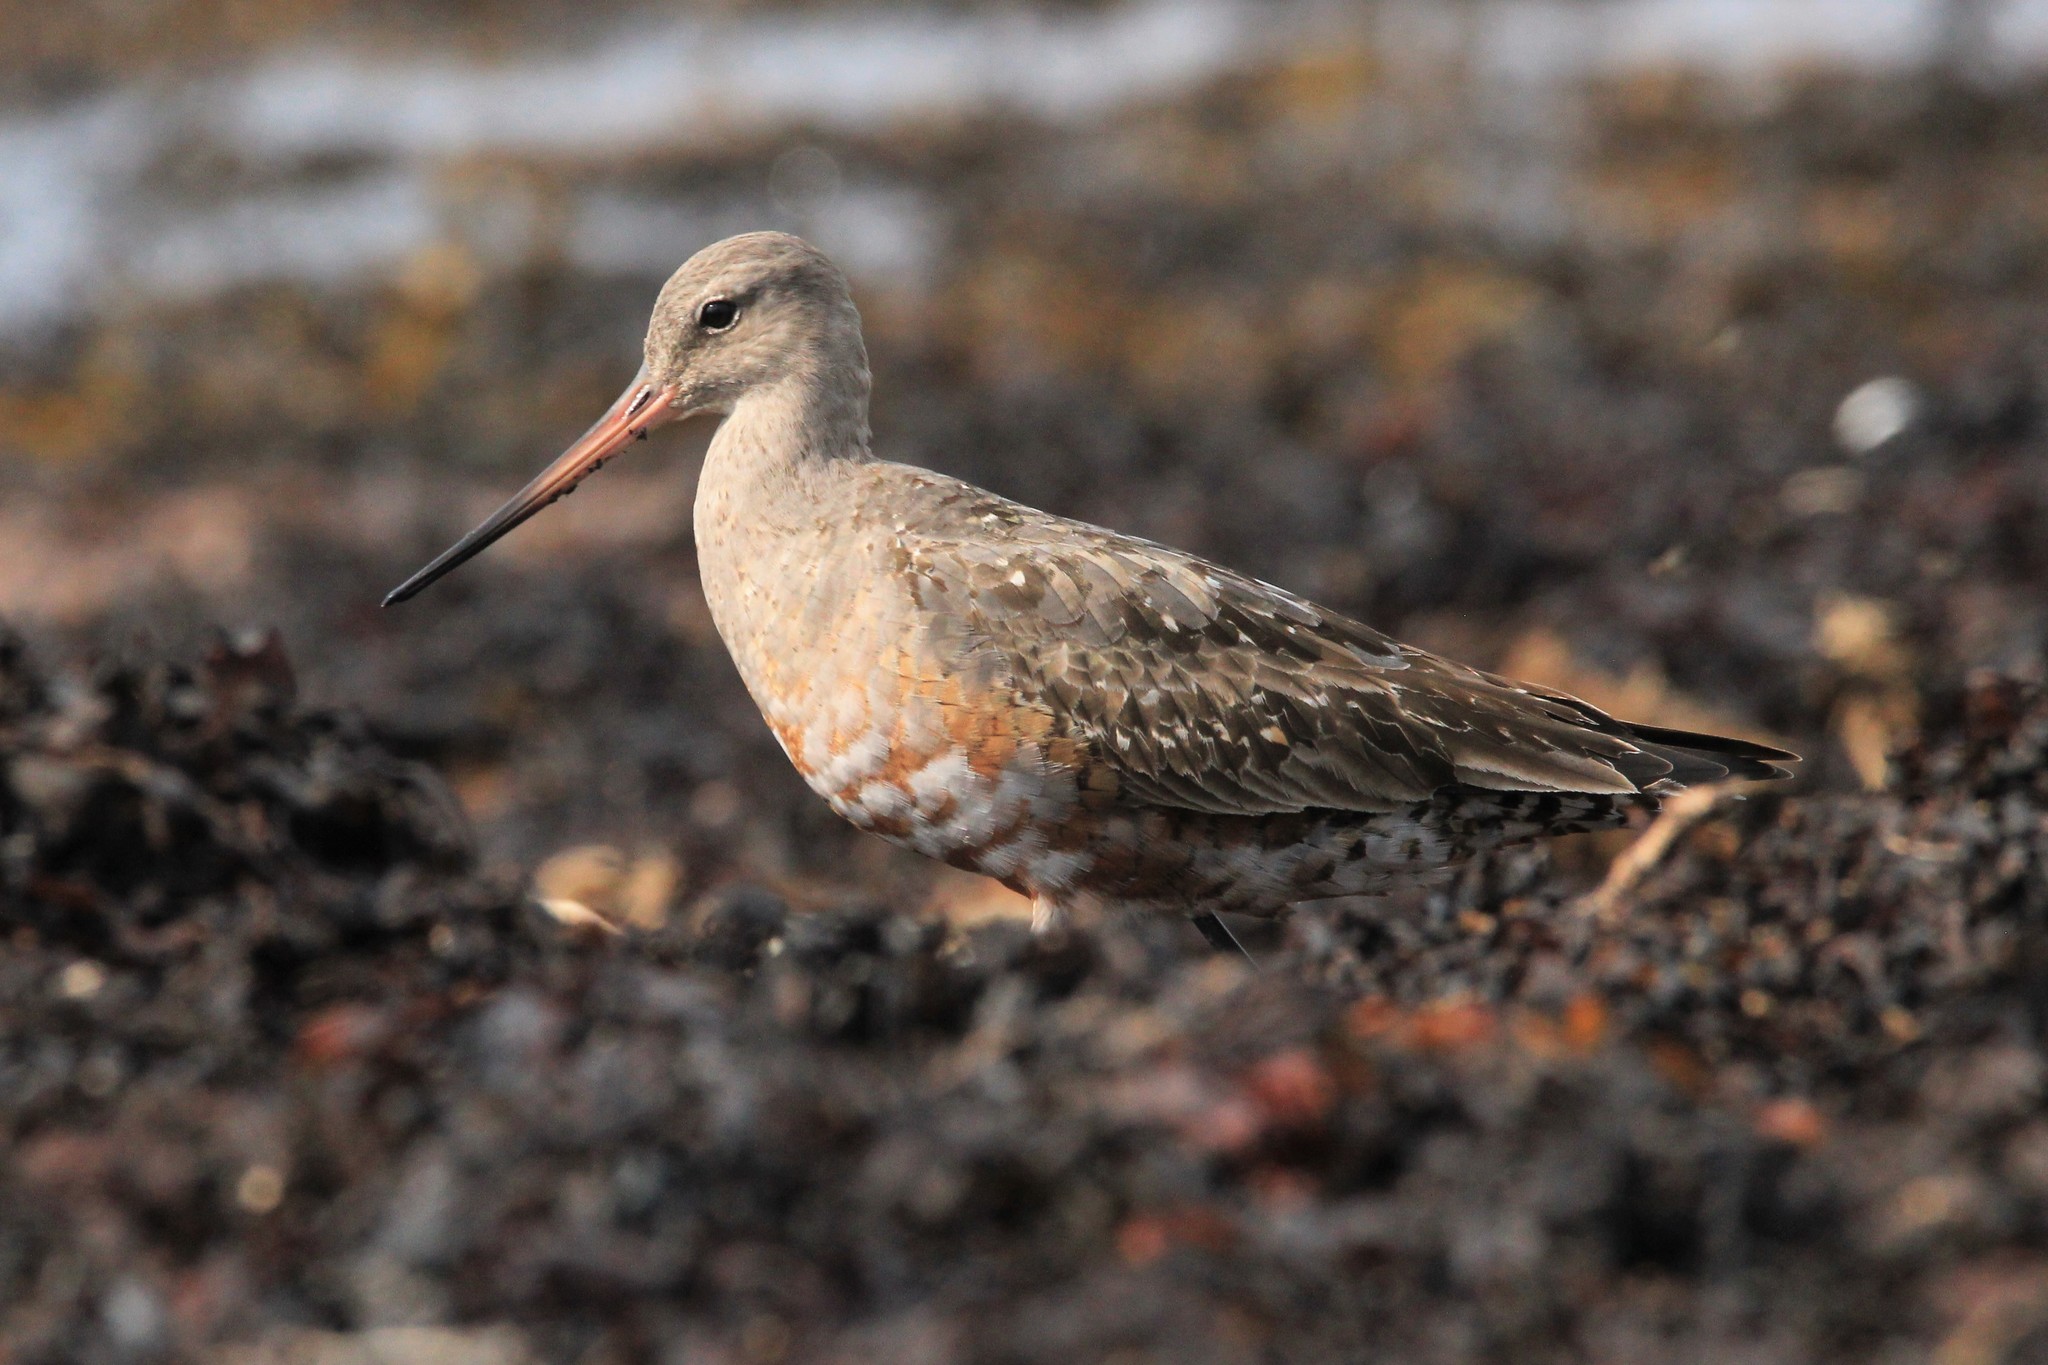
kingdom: Animalia
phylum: Chordata
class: Aves
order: Charadriiformes
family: Scolopacidae
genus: Limosa
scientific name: Limosa haemastica
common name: Hudsonian godwit
